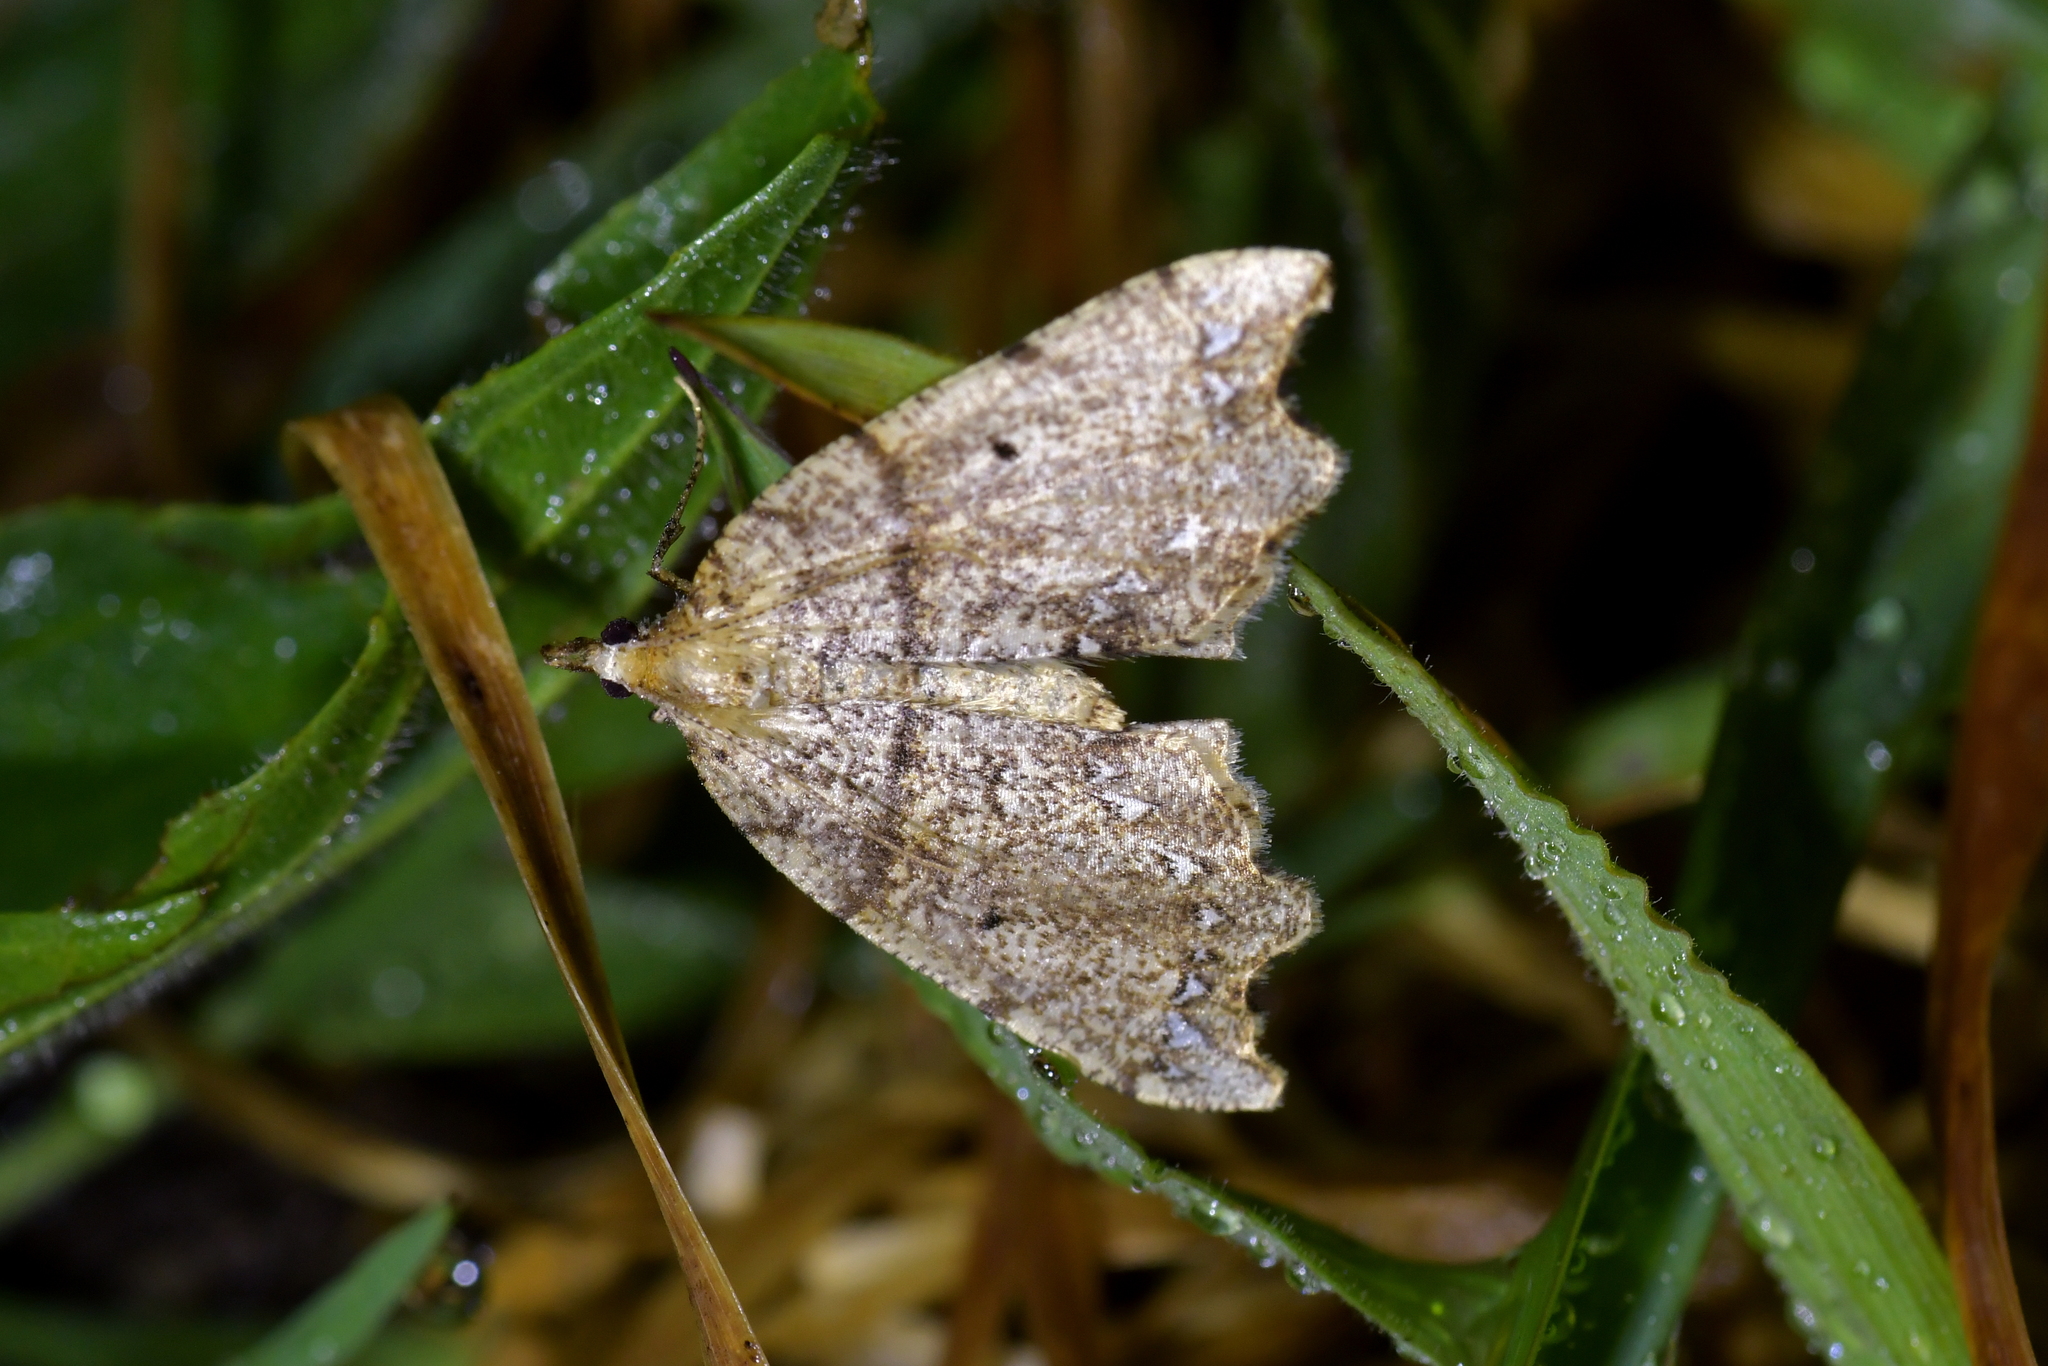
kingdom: Animalia
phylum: Arthropoda
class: Insecta
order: Lepidoptera
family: Geometridae
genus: Chalastra
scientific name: Chalastra pellurgata
